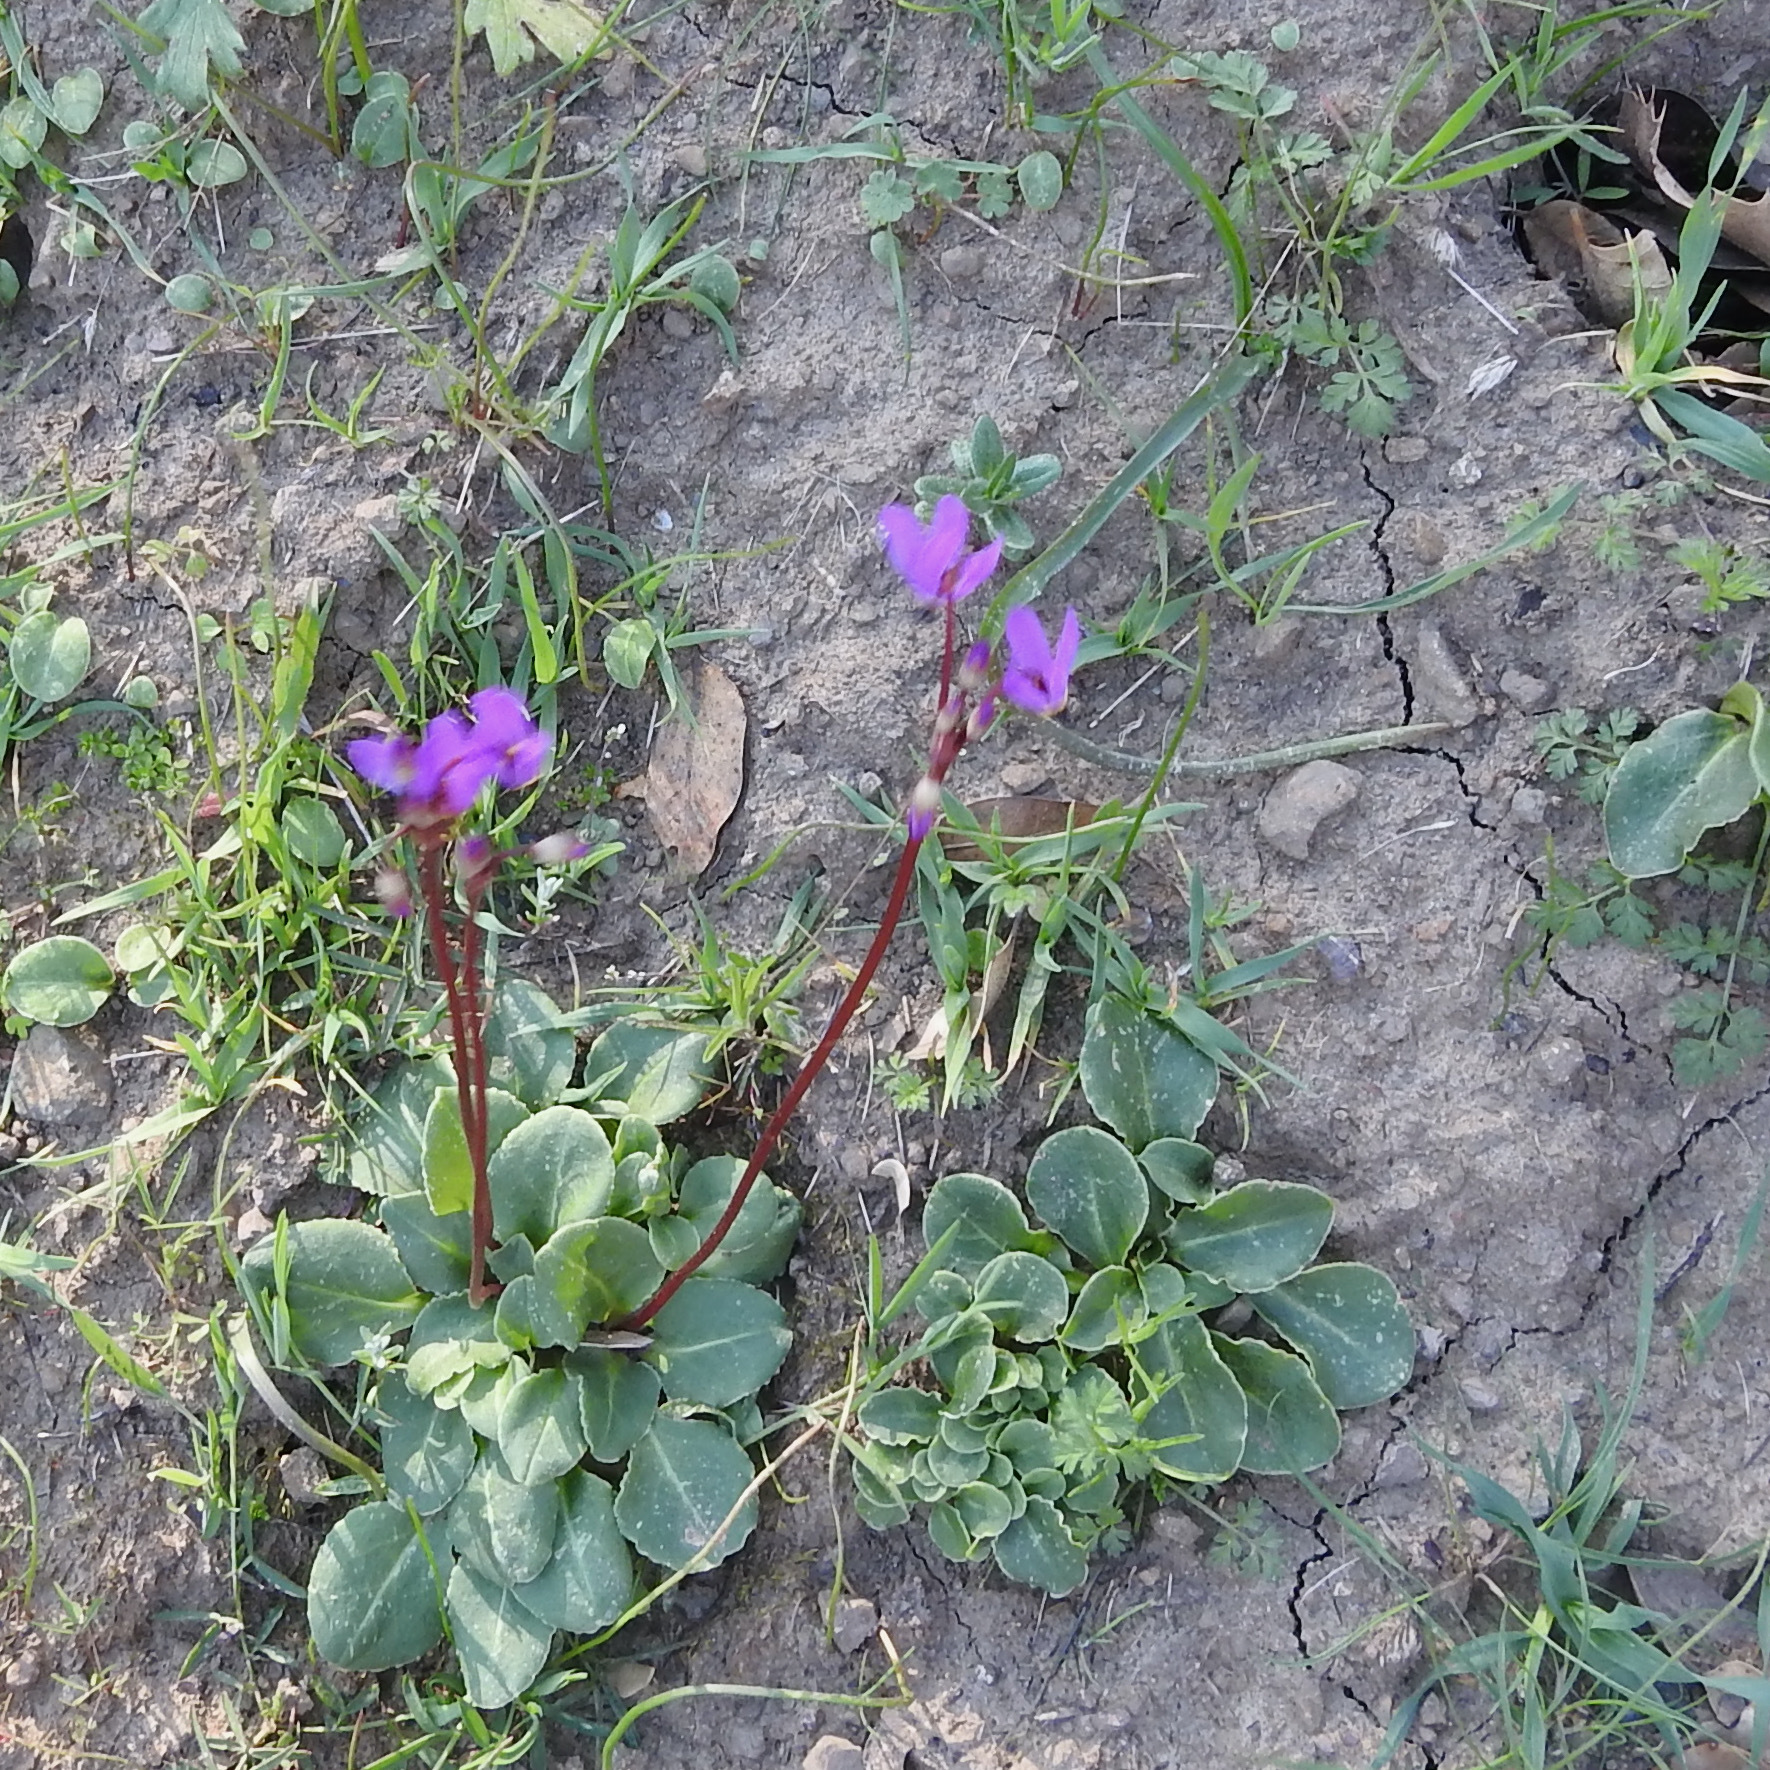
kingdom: Plantae
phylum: Tracheophyta
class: Magnoliopsida
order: Ericales
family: Primulaceae
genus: Dodecatheon
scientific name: Dodecatheon hendersonii
